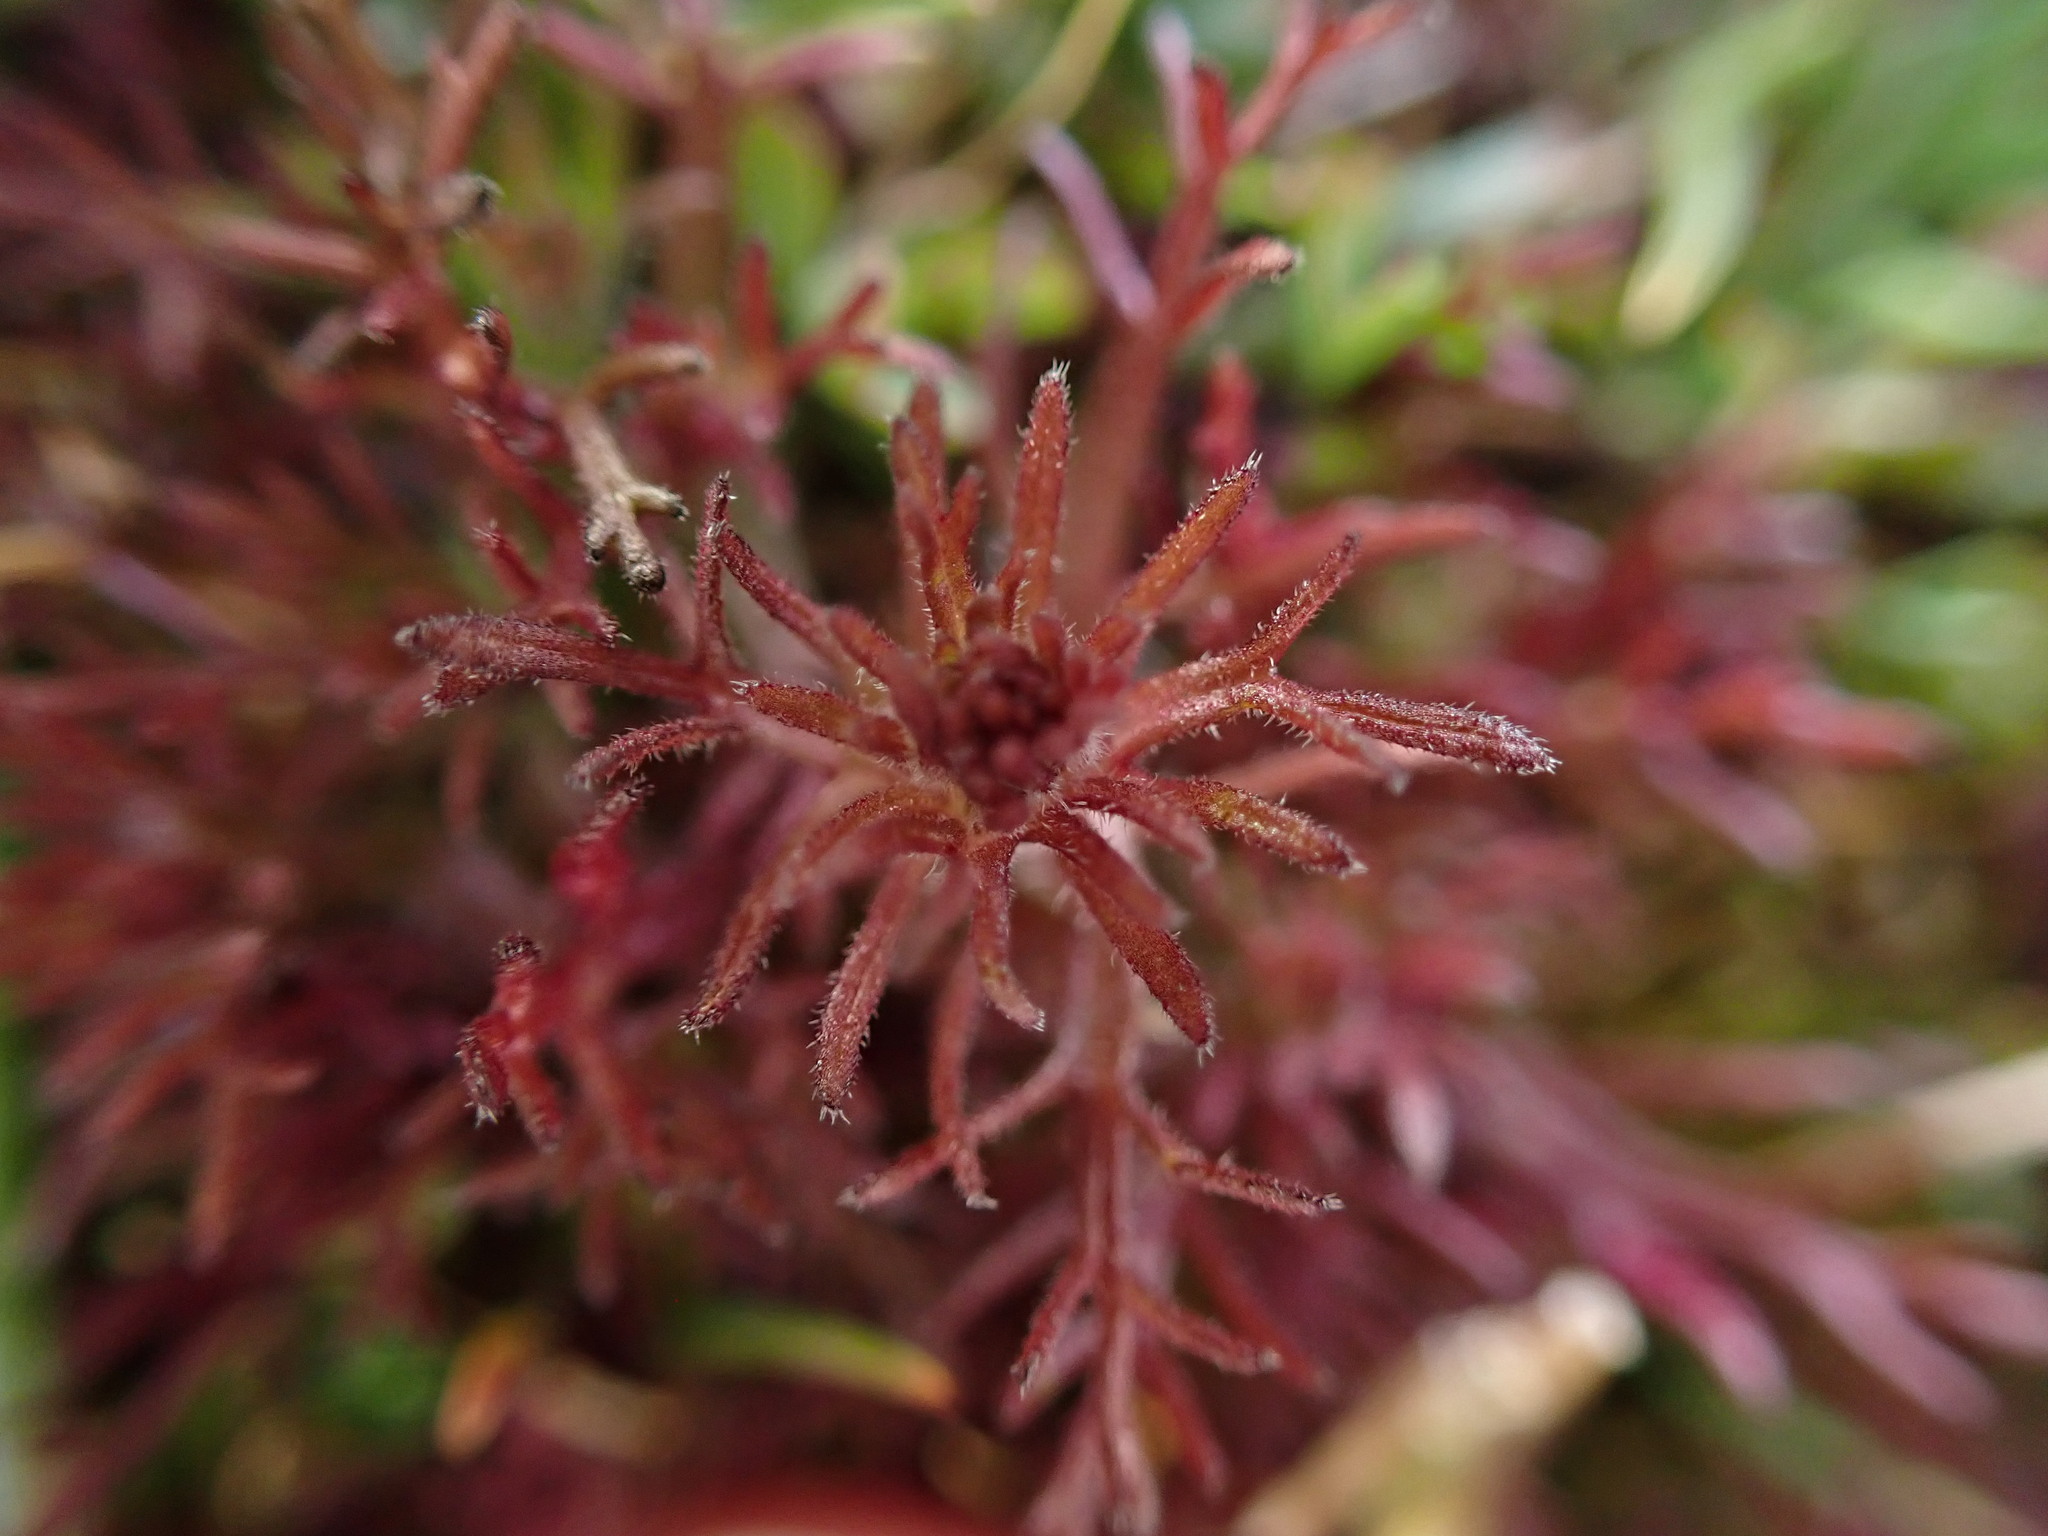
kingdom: Plantae
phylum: Tracheophyta
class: Magnoliopsida
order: Lamiales
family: Orobanchaceae
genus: Triphysaria
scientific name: Triphysaria pusilla
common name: Dwarf false owl-clover
